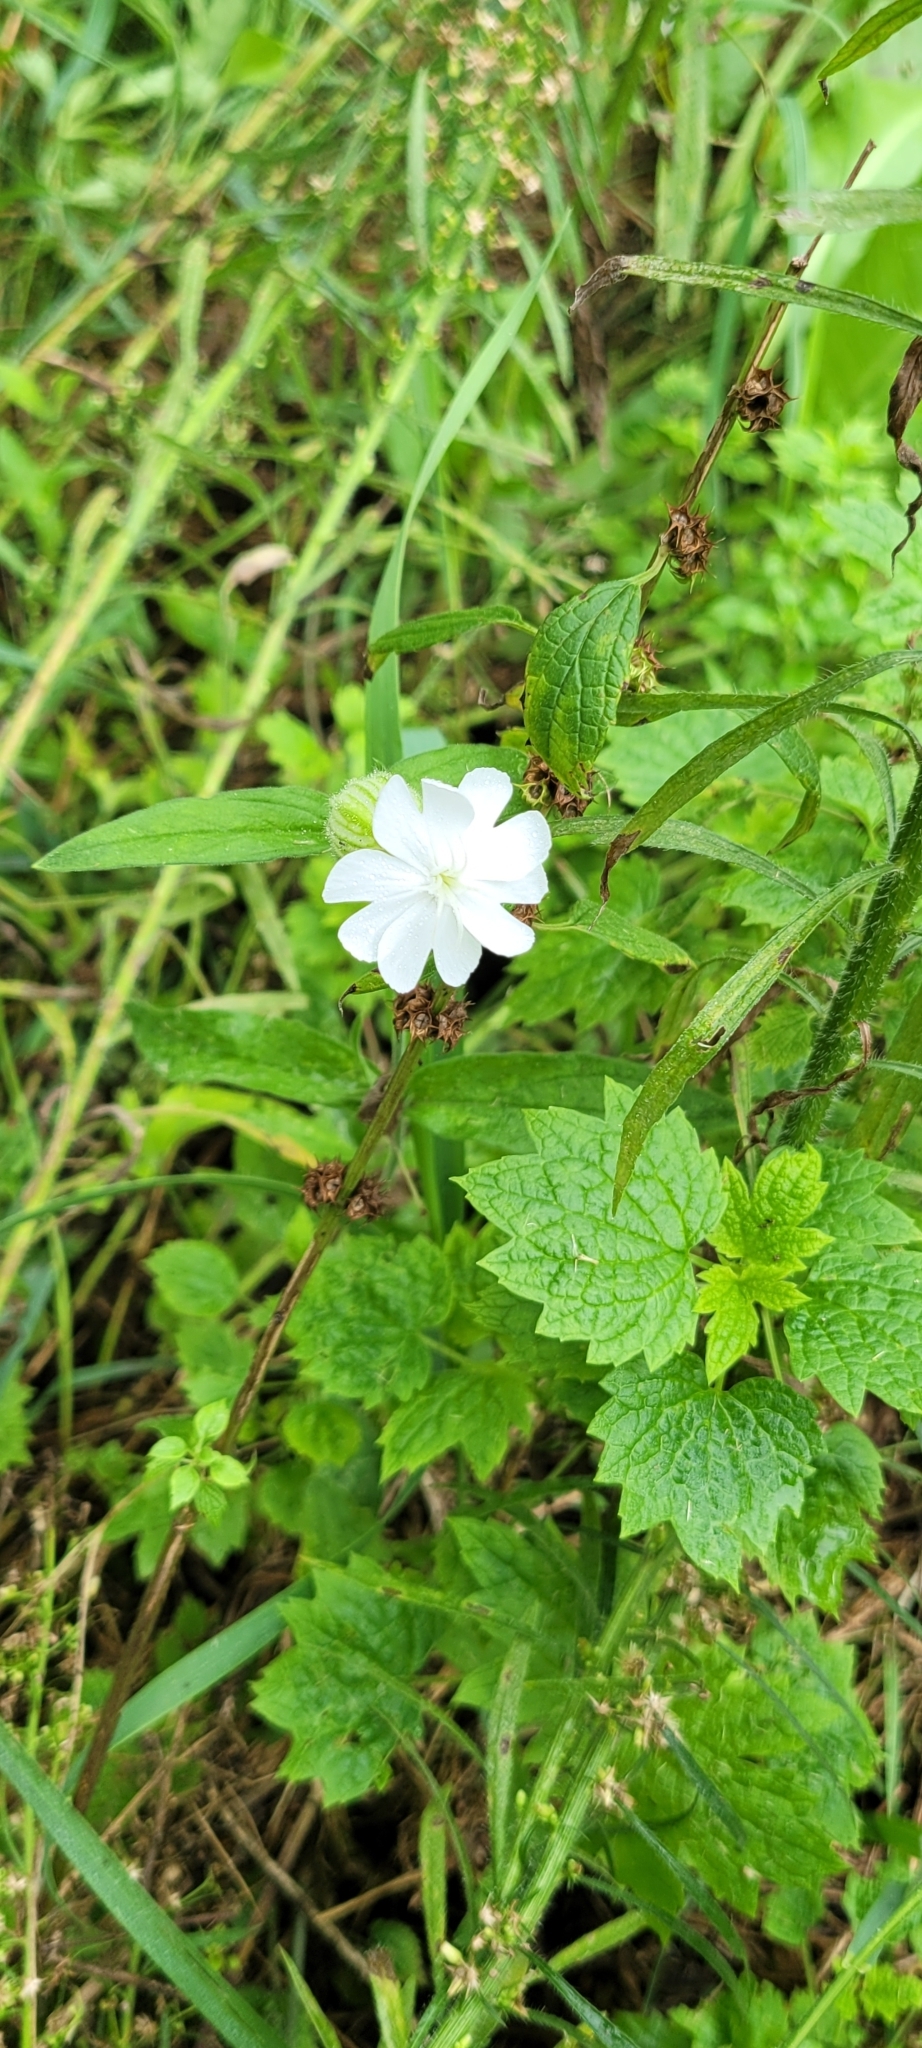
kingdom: Plantae
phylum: Tracheophyta
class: Magnoliopsida
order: Caryophyllales
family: Caryophyllaceae
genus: Silene
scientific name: Silene latifolia
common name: White campion
